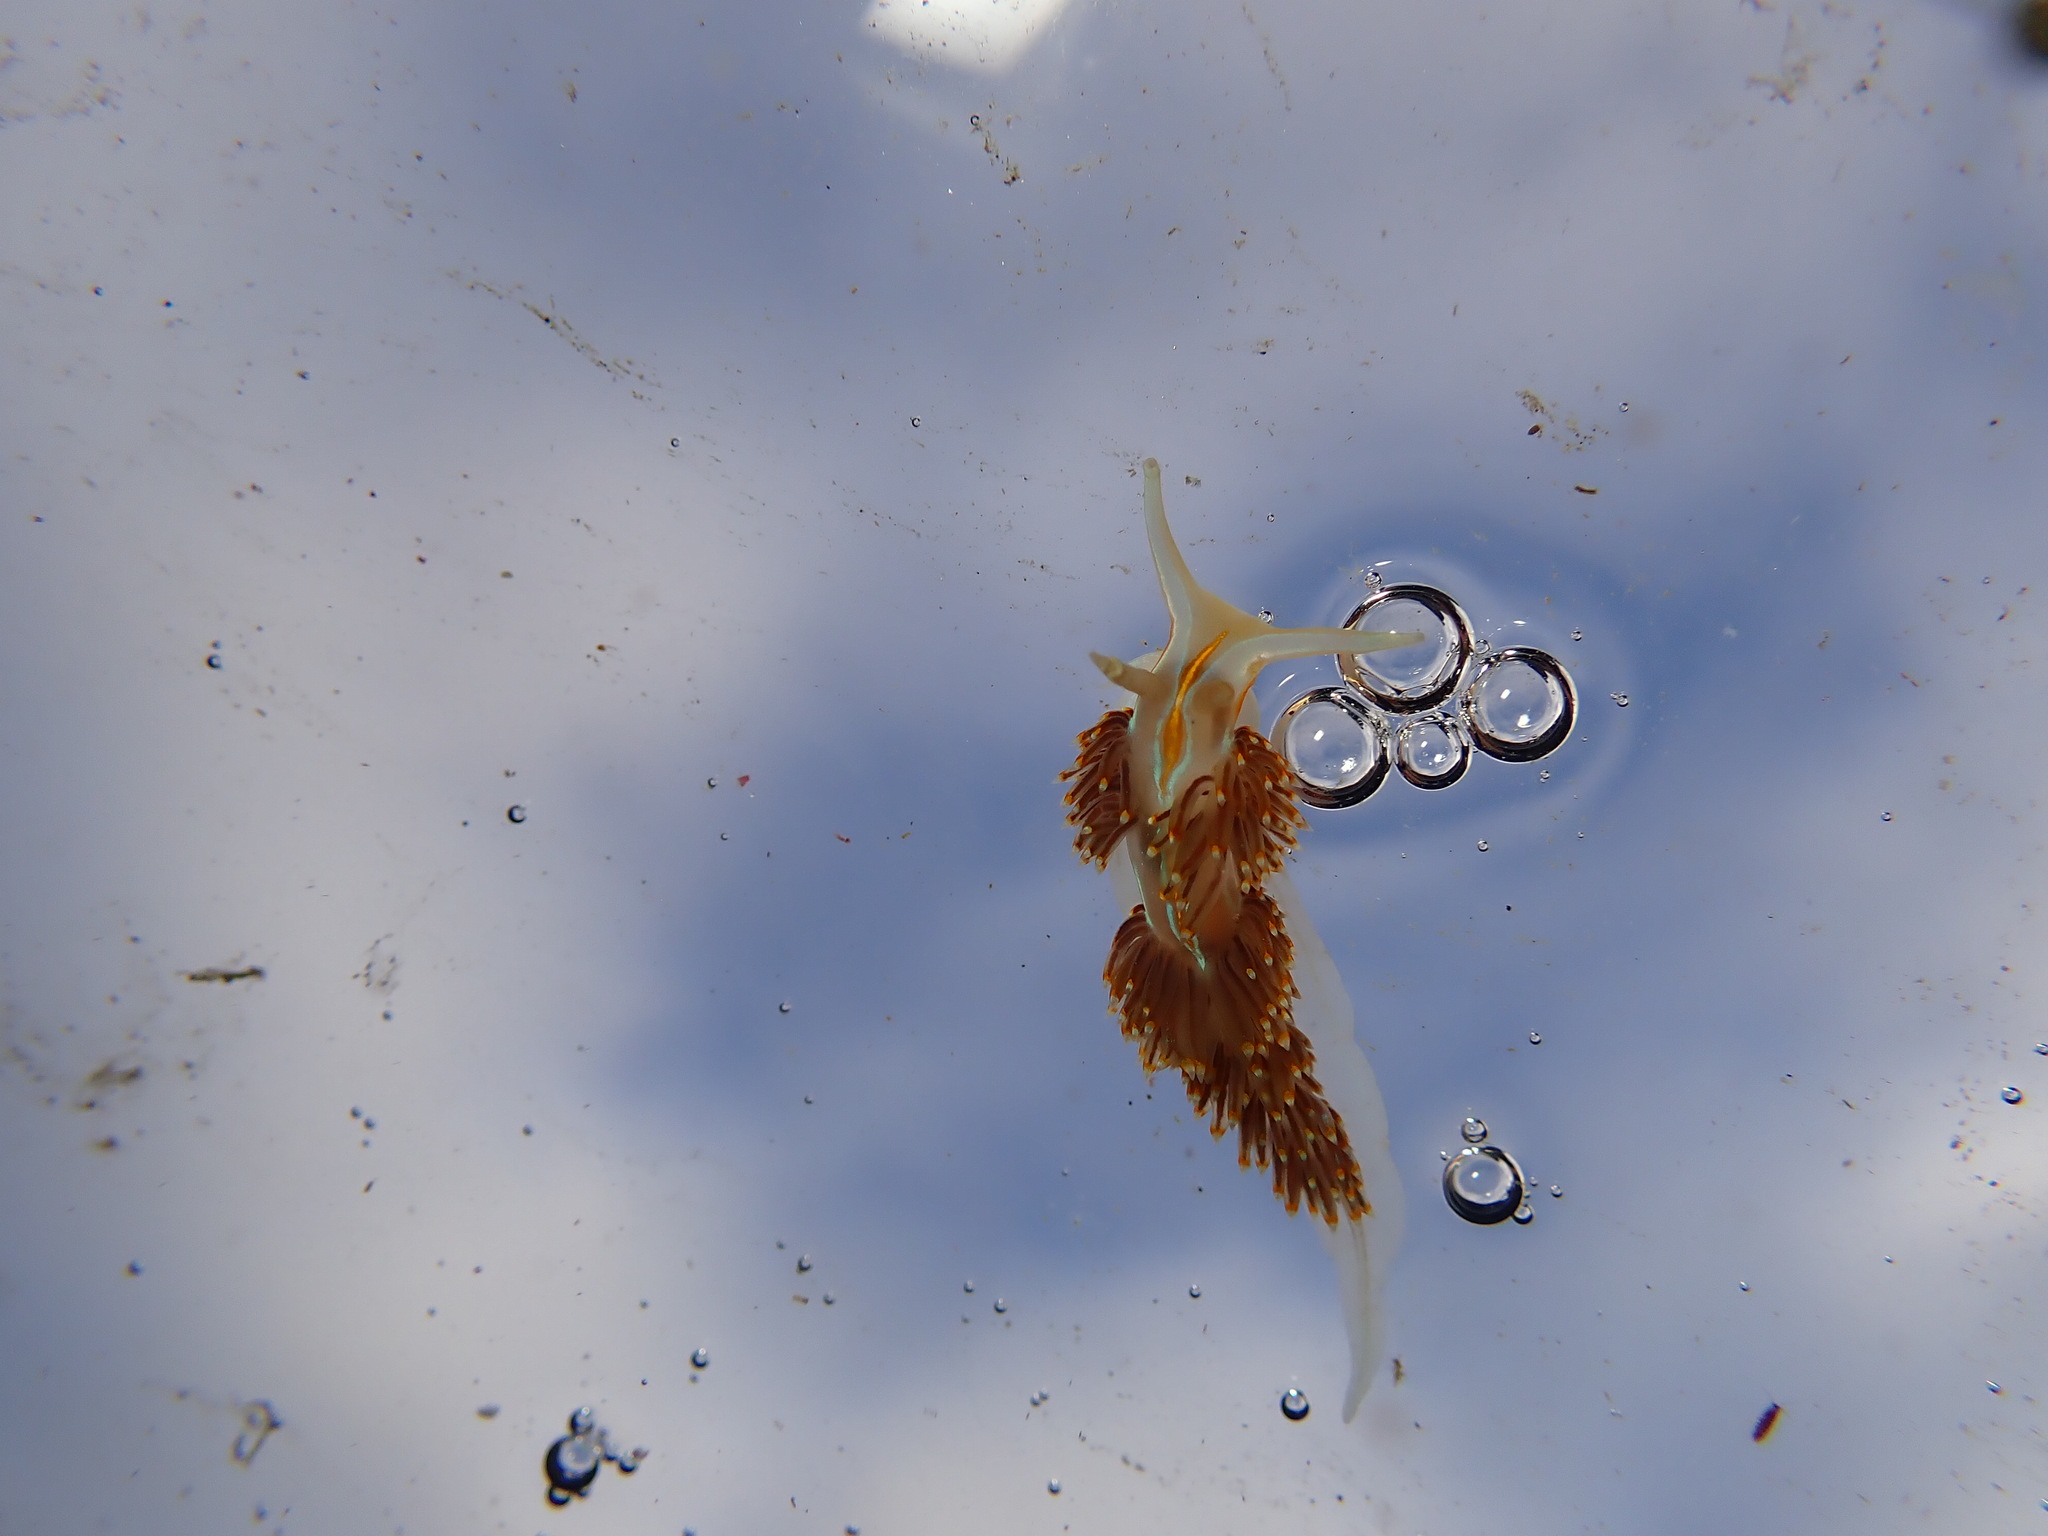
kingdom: Animalia
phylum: Mollusca
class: Gastropoda
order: Nudibranchia
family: Myrrhinidae
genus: Hermissenda
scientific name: Hermissenda opalescens
